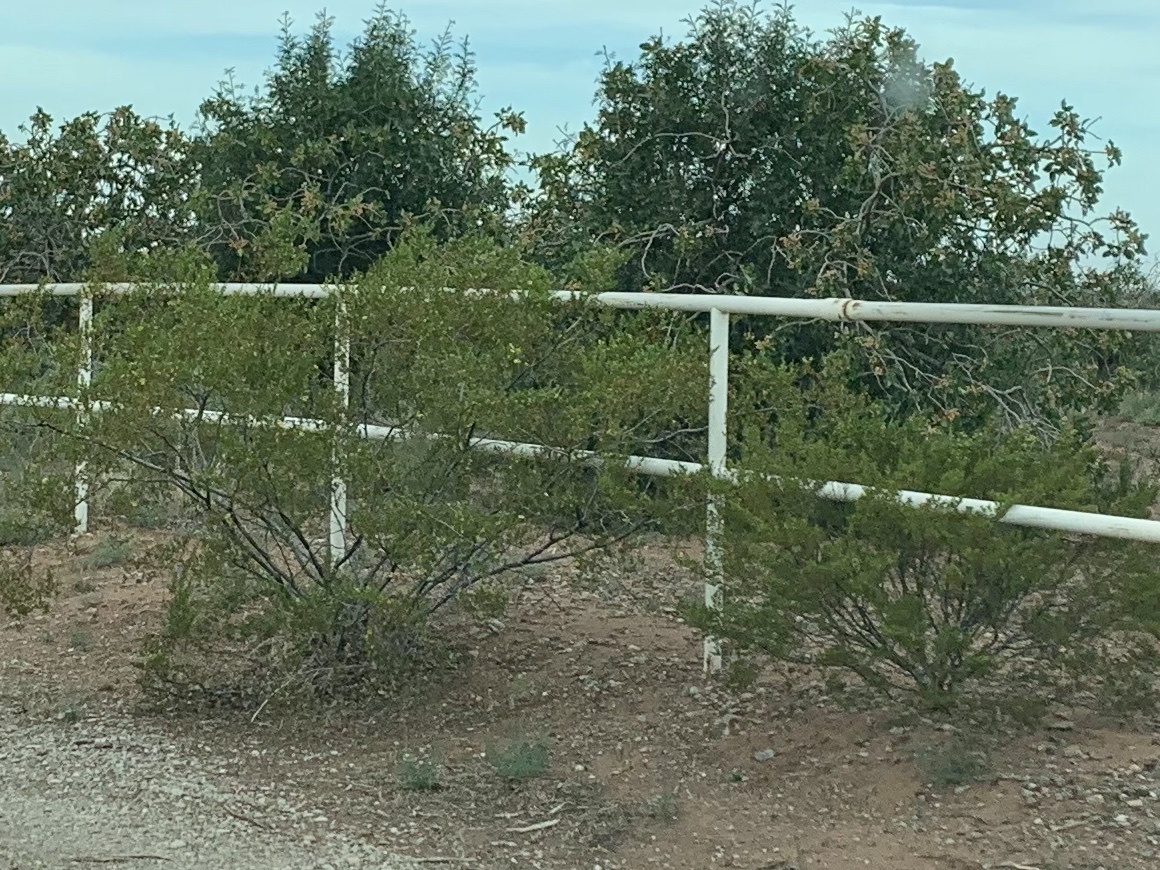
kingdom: Plantae
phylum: Tracheophyta
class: Magnoliopsida
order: Zygophyllales
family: Zygophyllaceae
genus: Larrea
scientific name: Larrea tridentata
